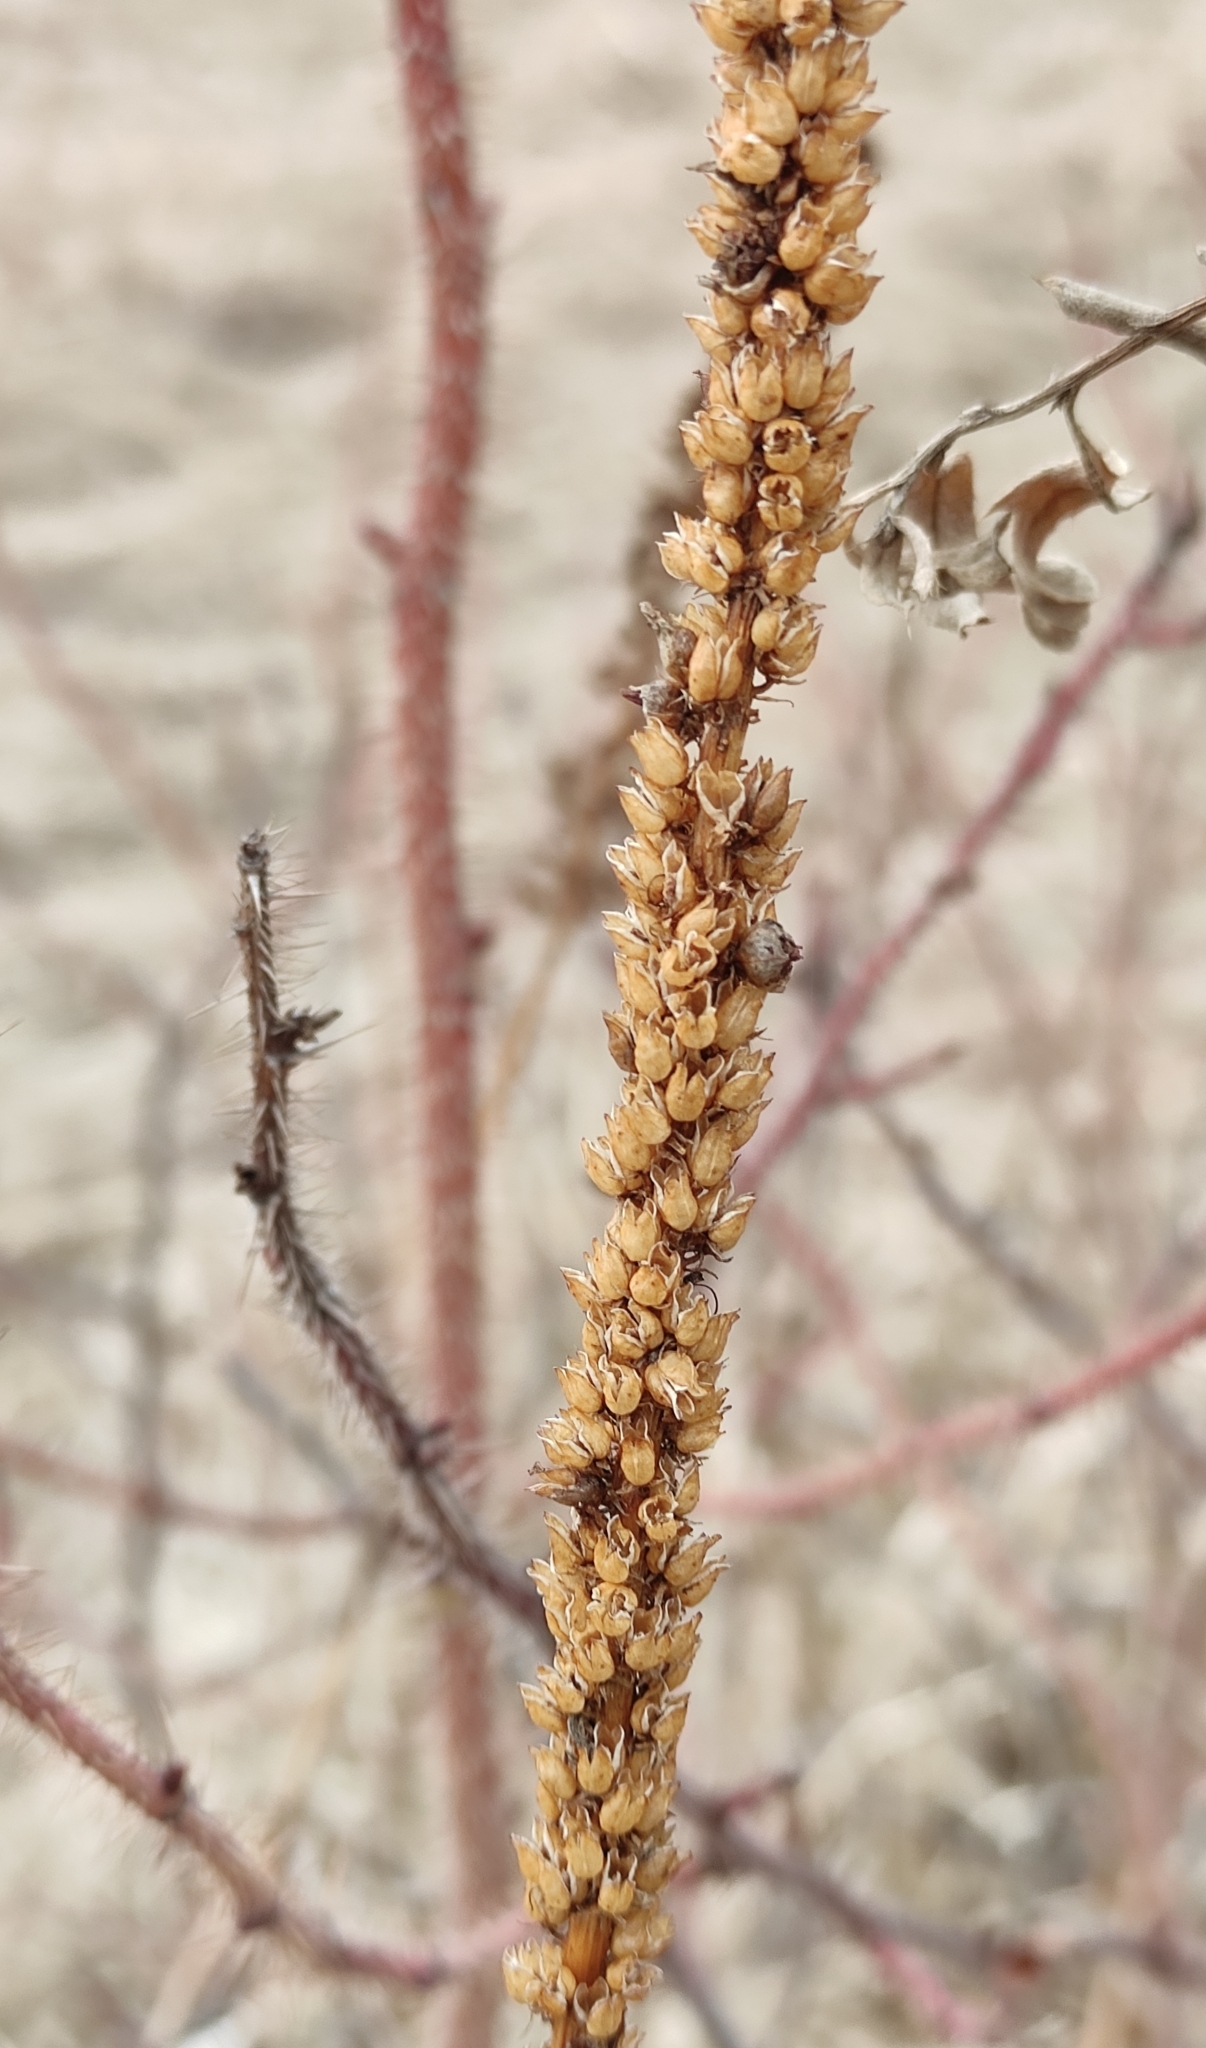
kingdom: Plantae
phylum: Tracheophyta
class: Magnoliopsida
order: Lamiales
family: Plantaginaceae
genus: Veronicastrum
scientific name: Veronicastrum sibiricum
